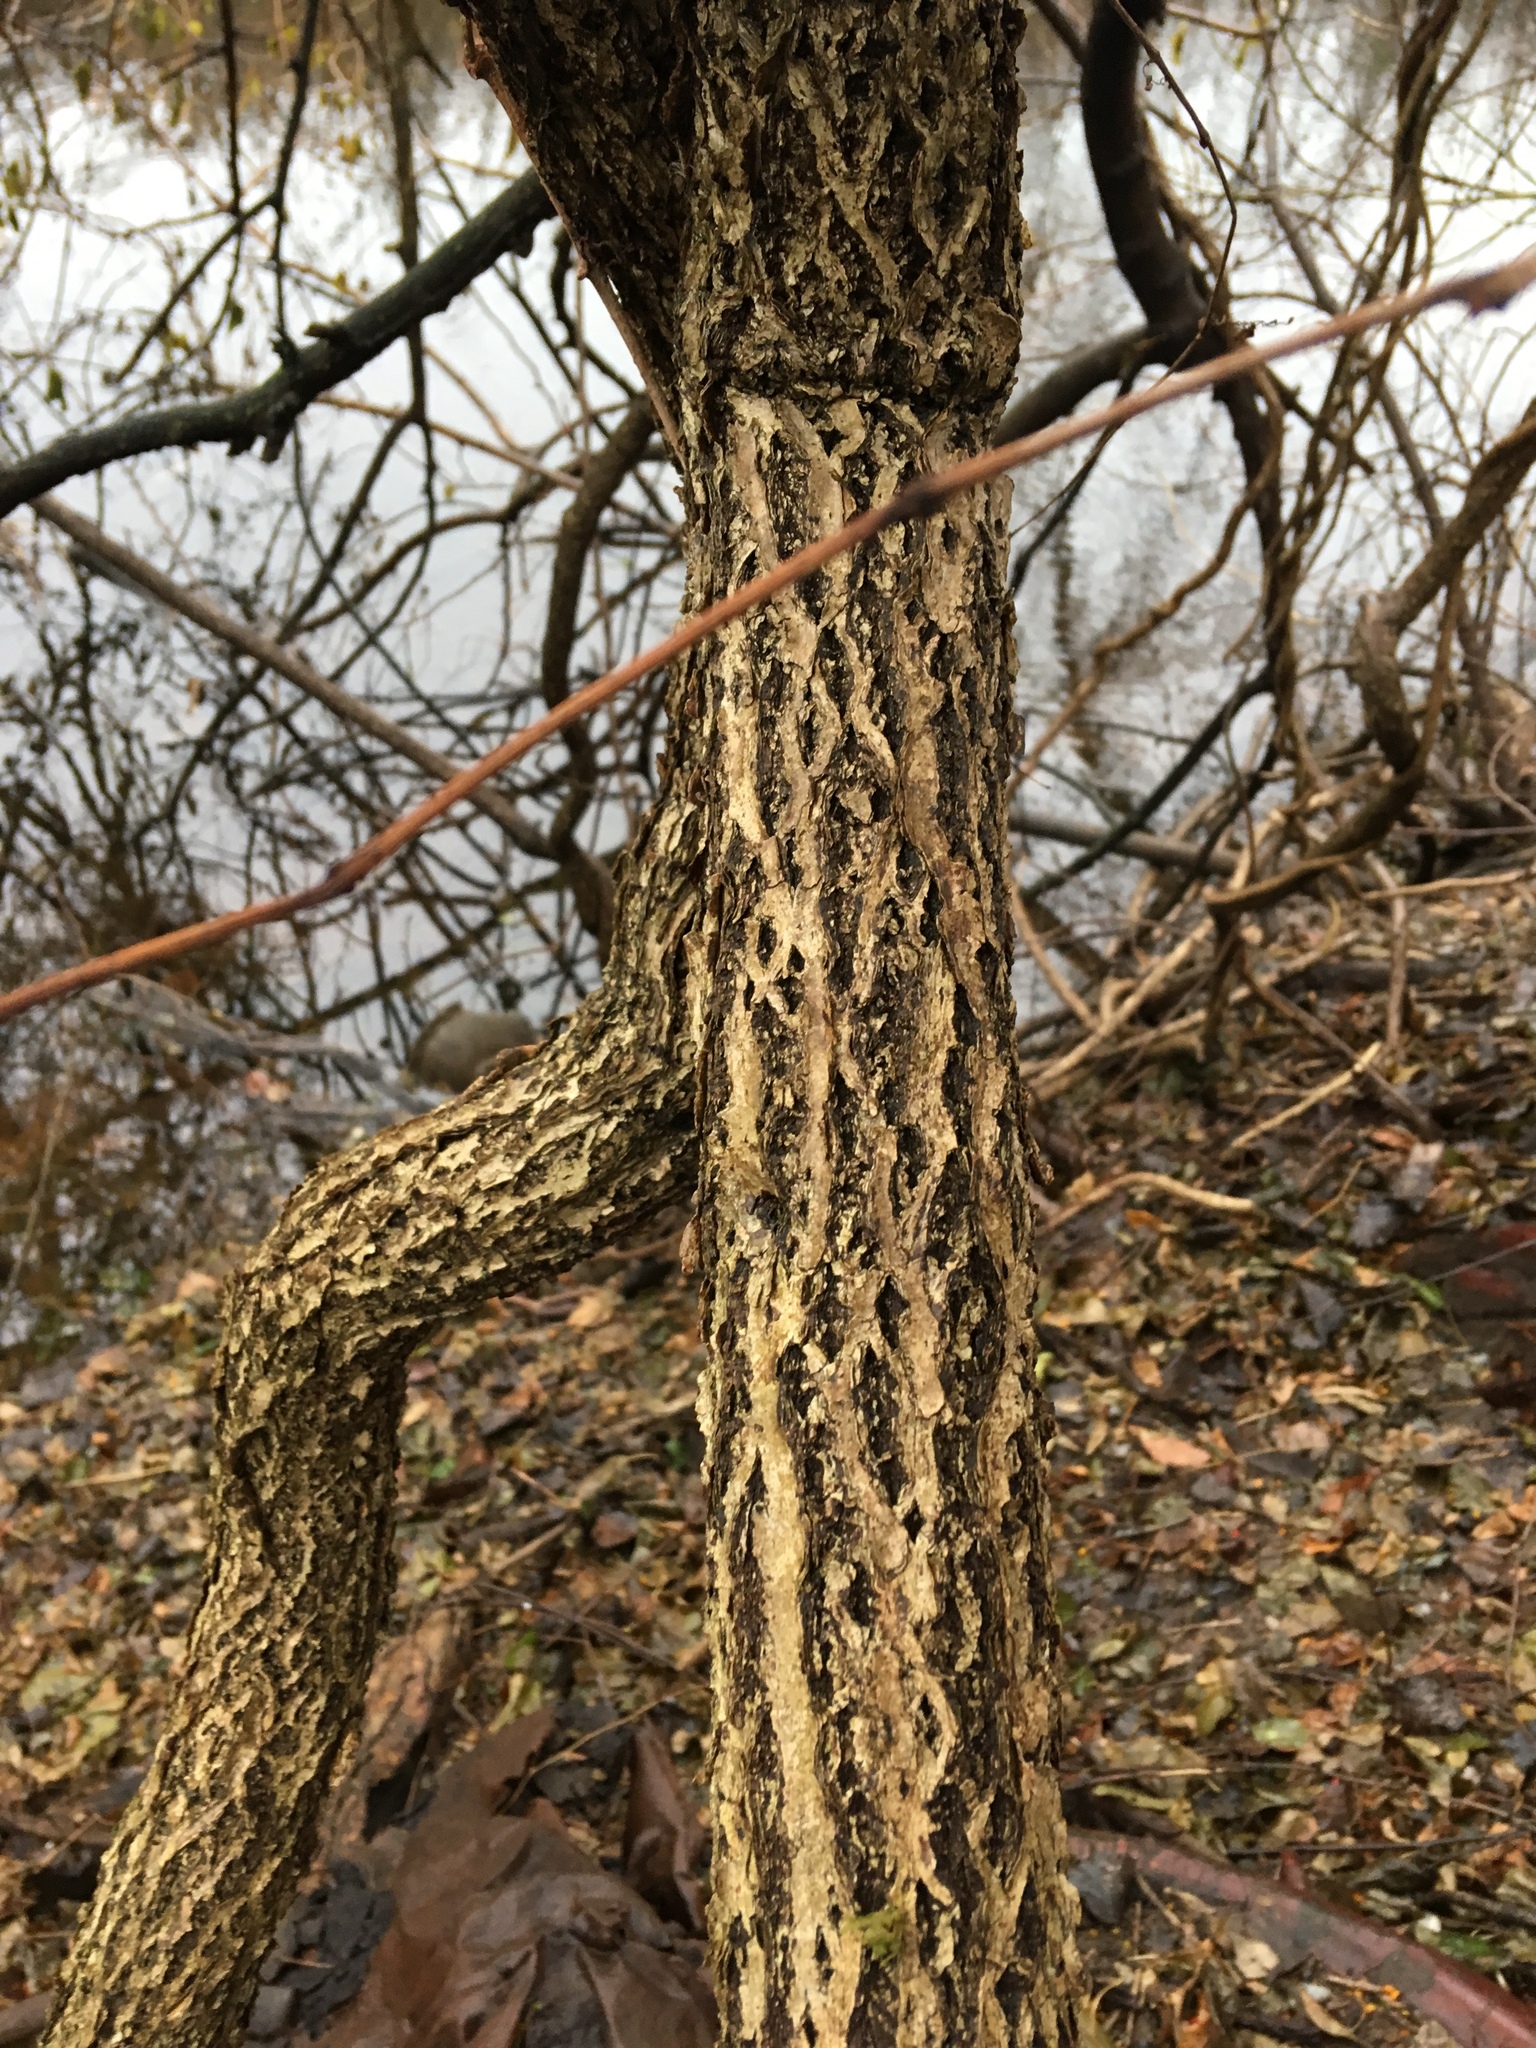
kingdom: Plantae
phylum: Tracheophyta
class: Magnoliopsida
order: Celastrales
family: Celastraceae
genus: Celastrus
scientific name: Celastrus orbiculatus
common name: Oriental bittersweet
